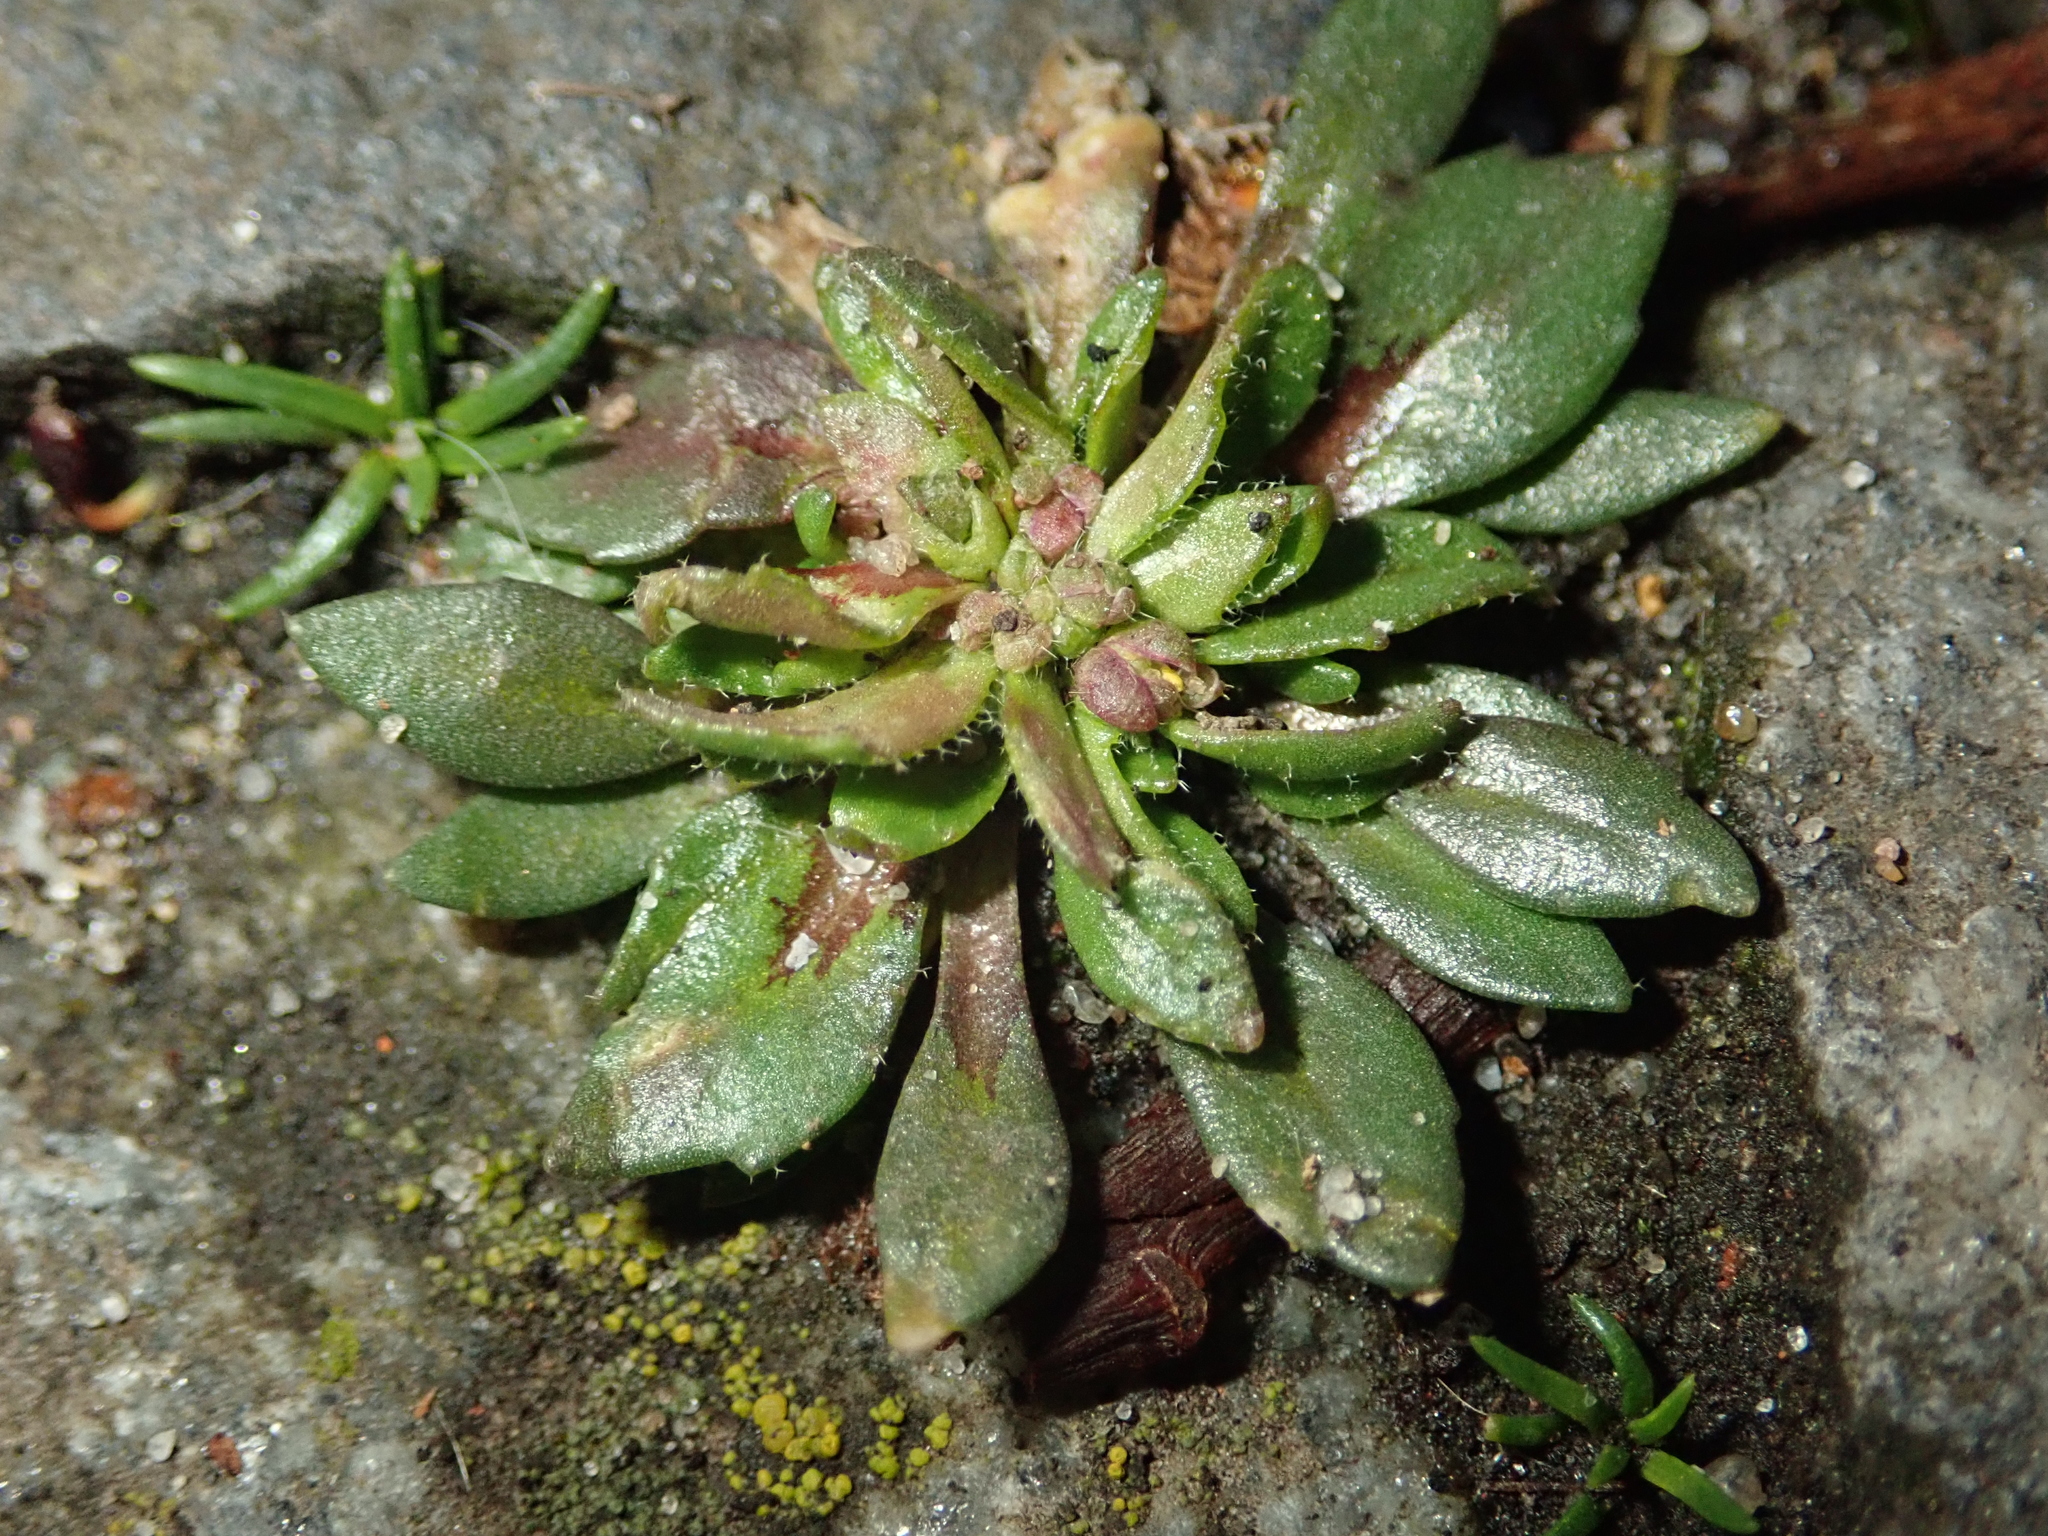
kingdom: Plantae
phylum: Tracheophyta
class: Magnoliopsida
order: Brassicales
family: Brassicaceae
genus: Draba
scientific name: Draba verna
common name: Spring draba
